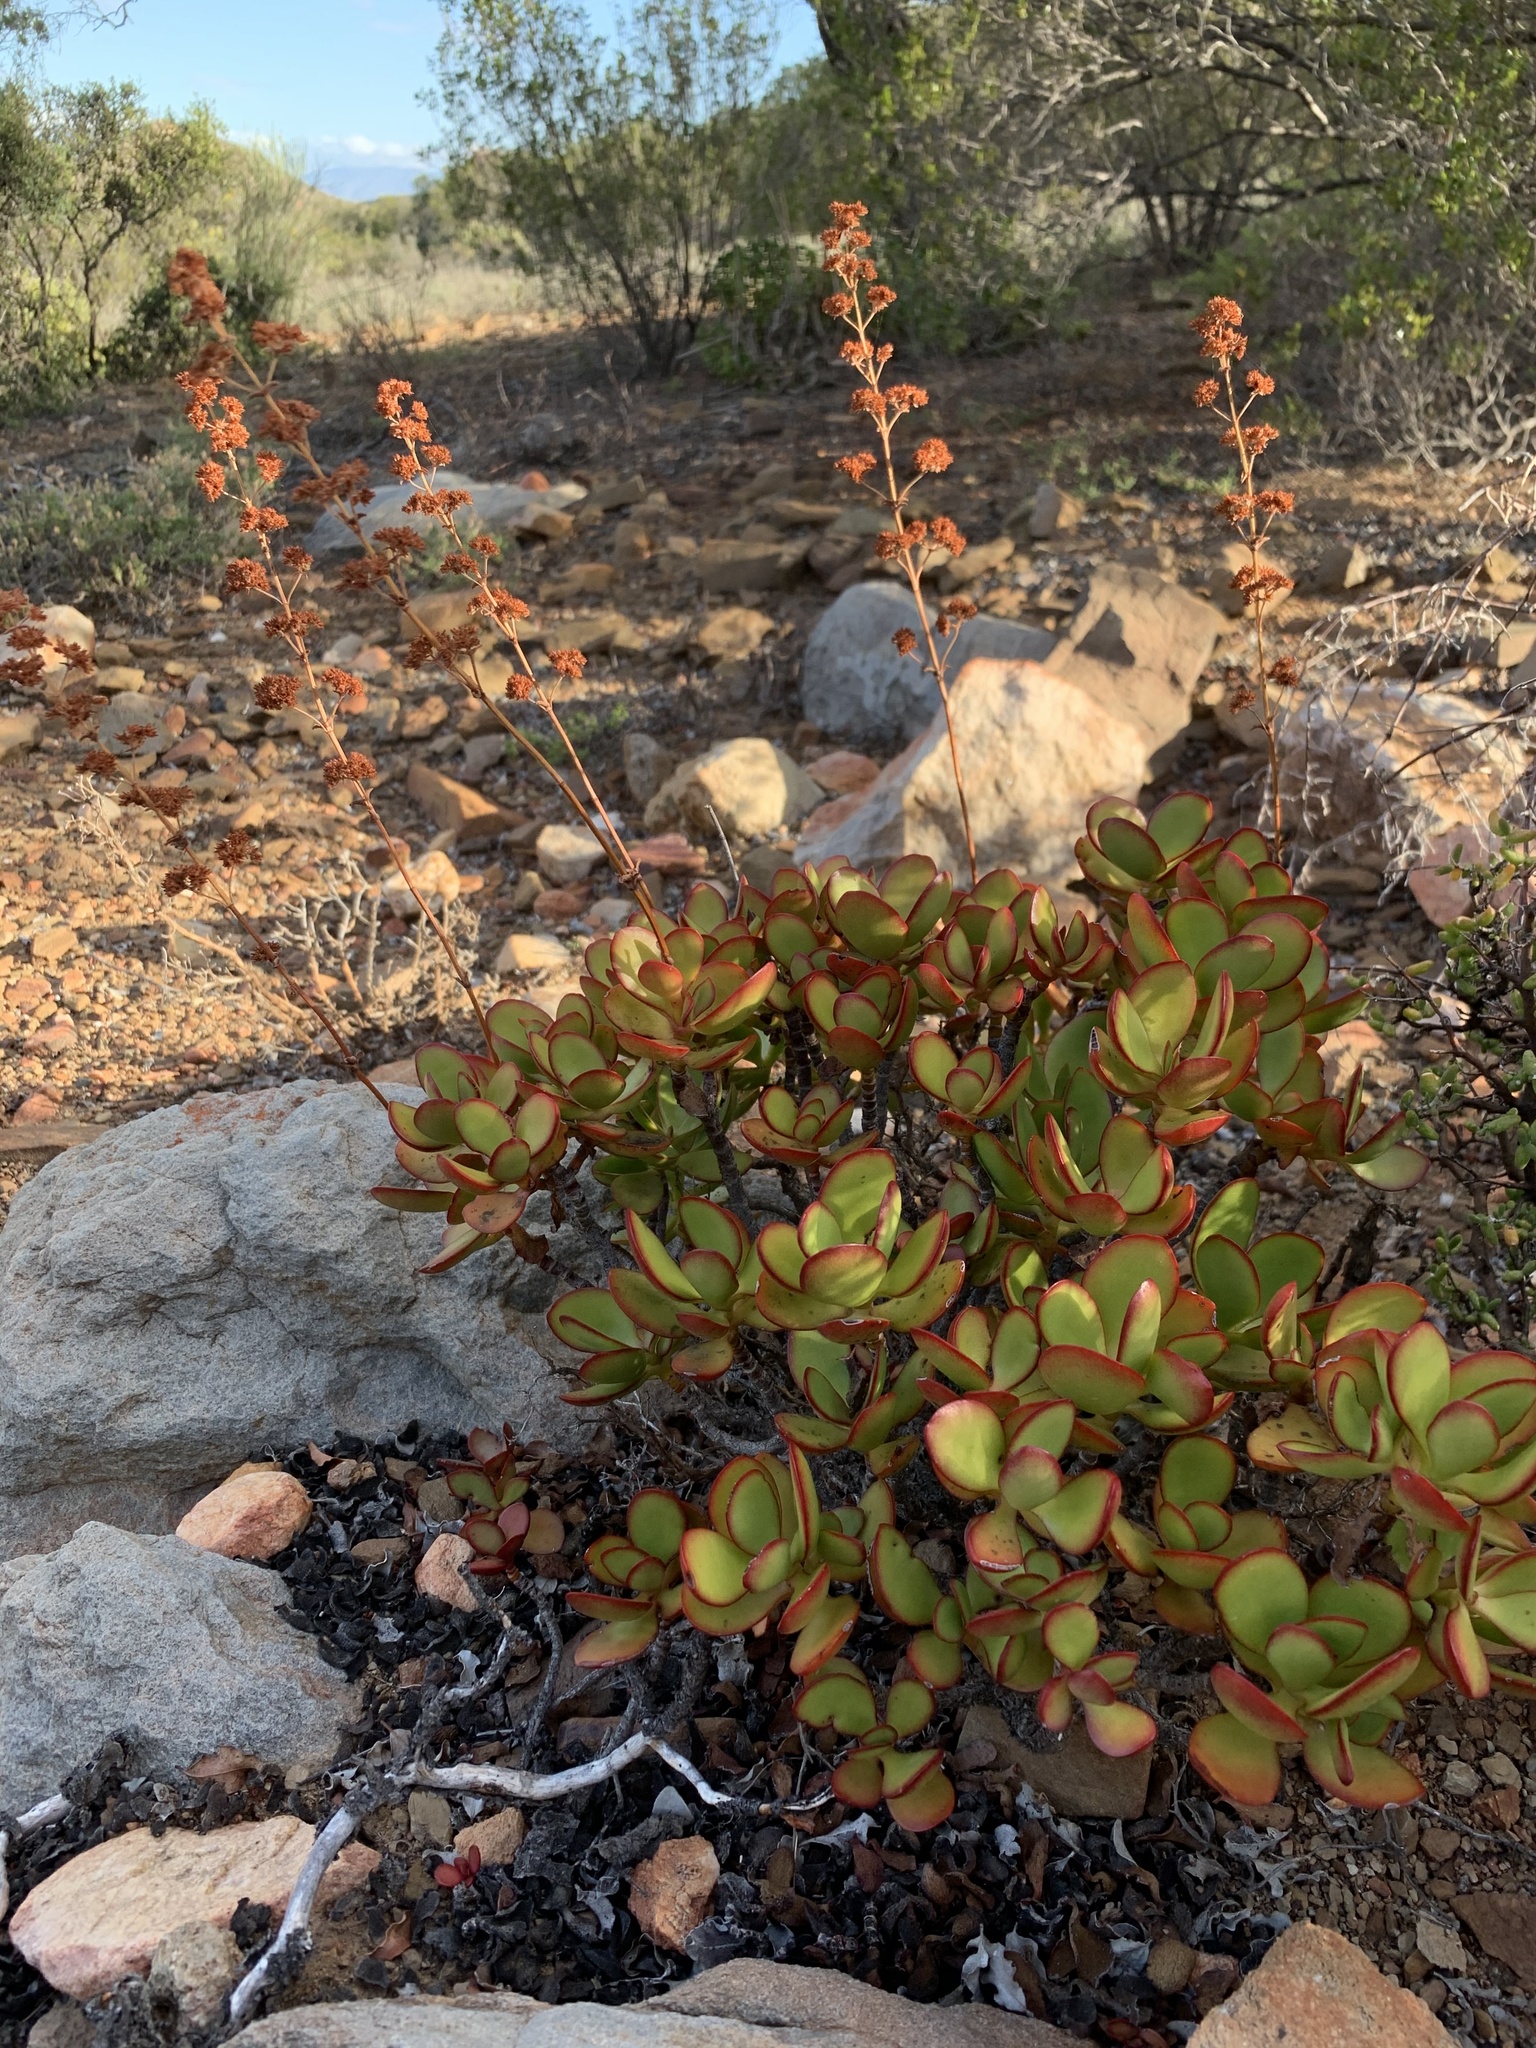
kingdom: Plantae
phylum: Tracheophyta
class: Magnoliopsida
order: Saxifragales
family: Crassulaceae
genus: Crassula
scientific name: Crassula cultrata
